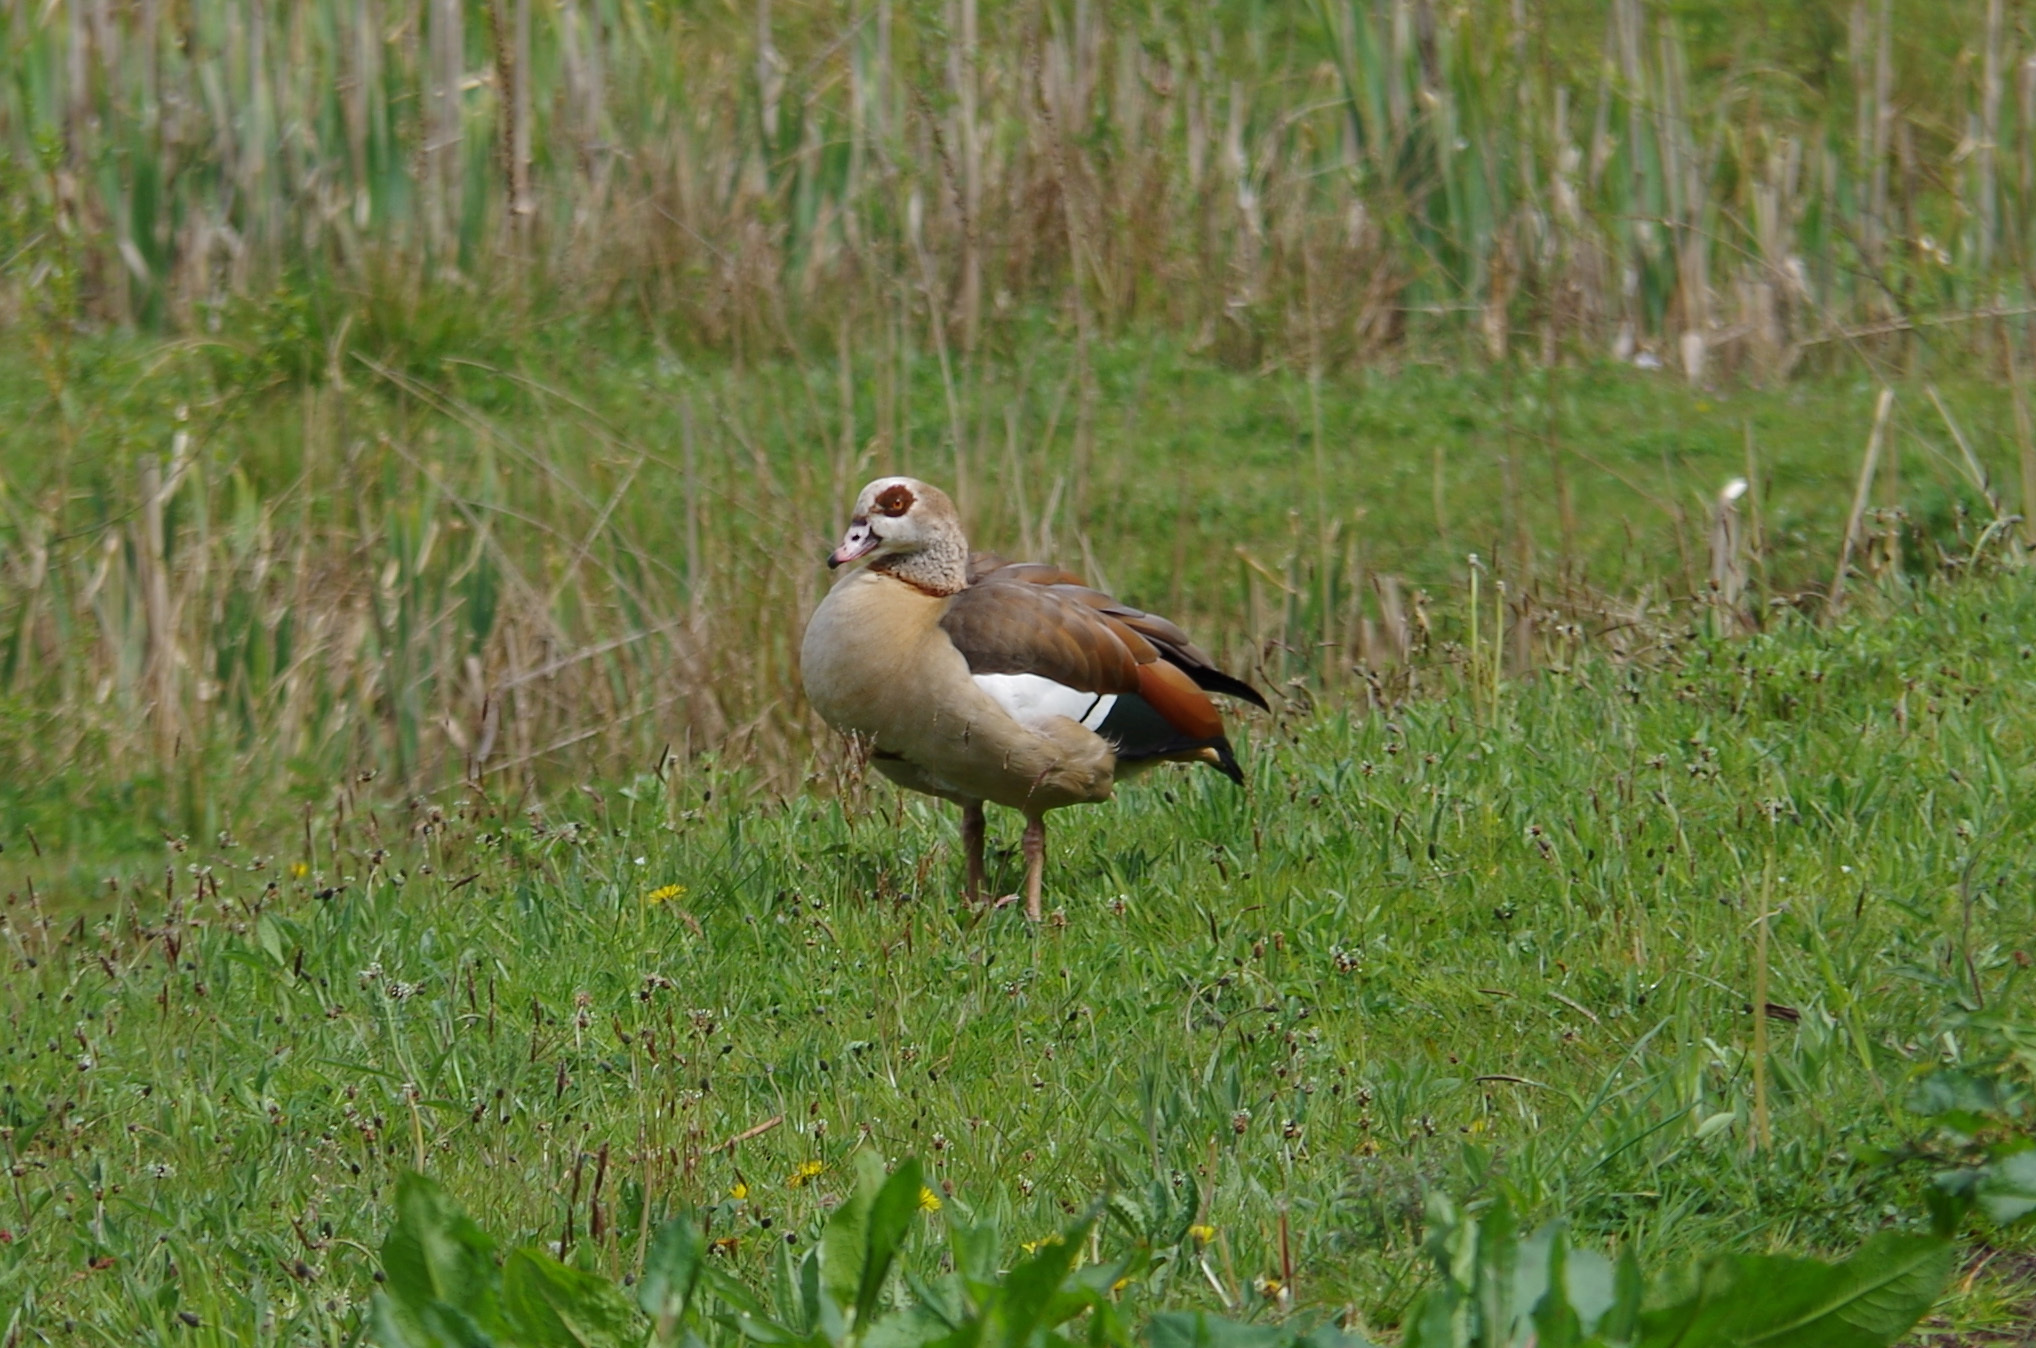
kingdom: Animalia
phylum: Chordata
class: Aves
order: Anseriformes
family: Anatidae
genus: Alopochen
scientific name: Alopochen aegyptiaca
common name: Egyptian goose
